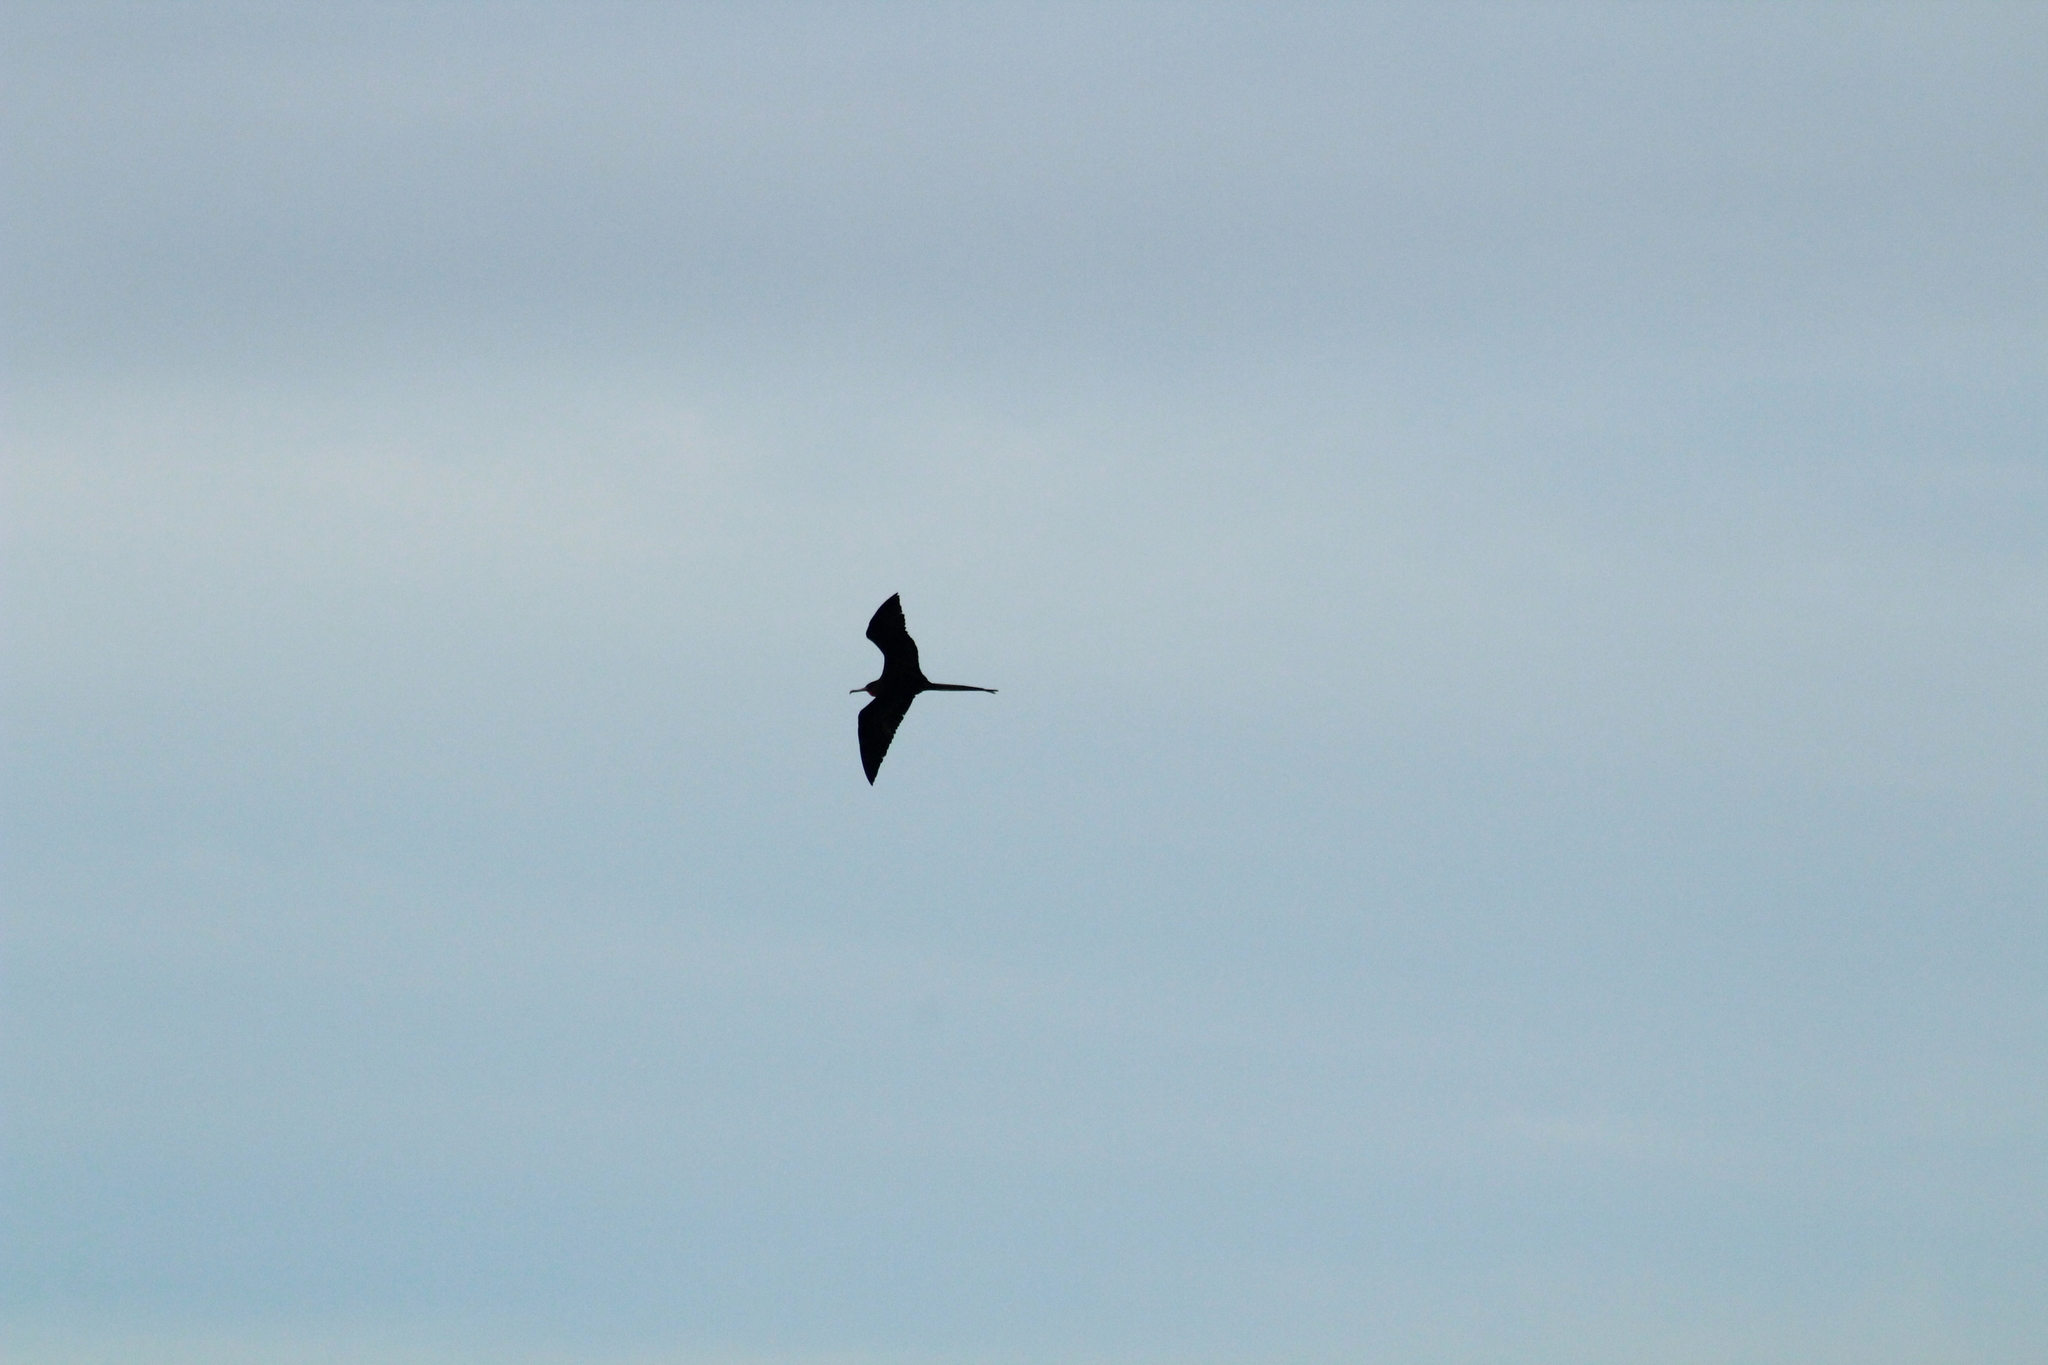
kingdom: Animalia
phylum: Chordata
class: Aves
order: Suliformes
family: Fregatidae
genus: Fregata
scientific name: Fregata magnificens
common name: Magnificent frigatebird
